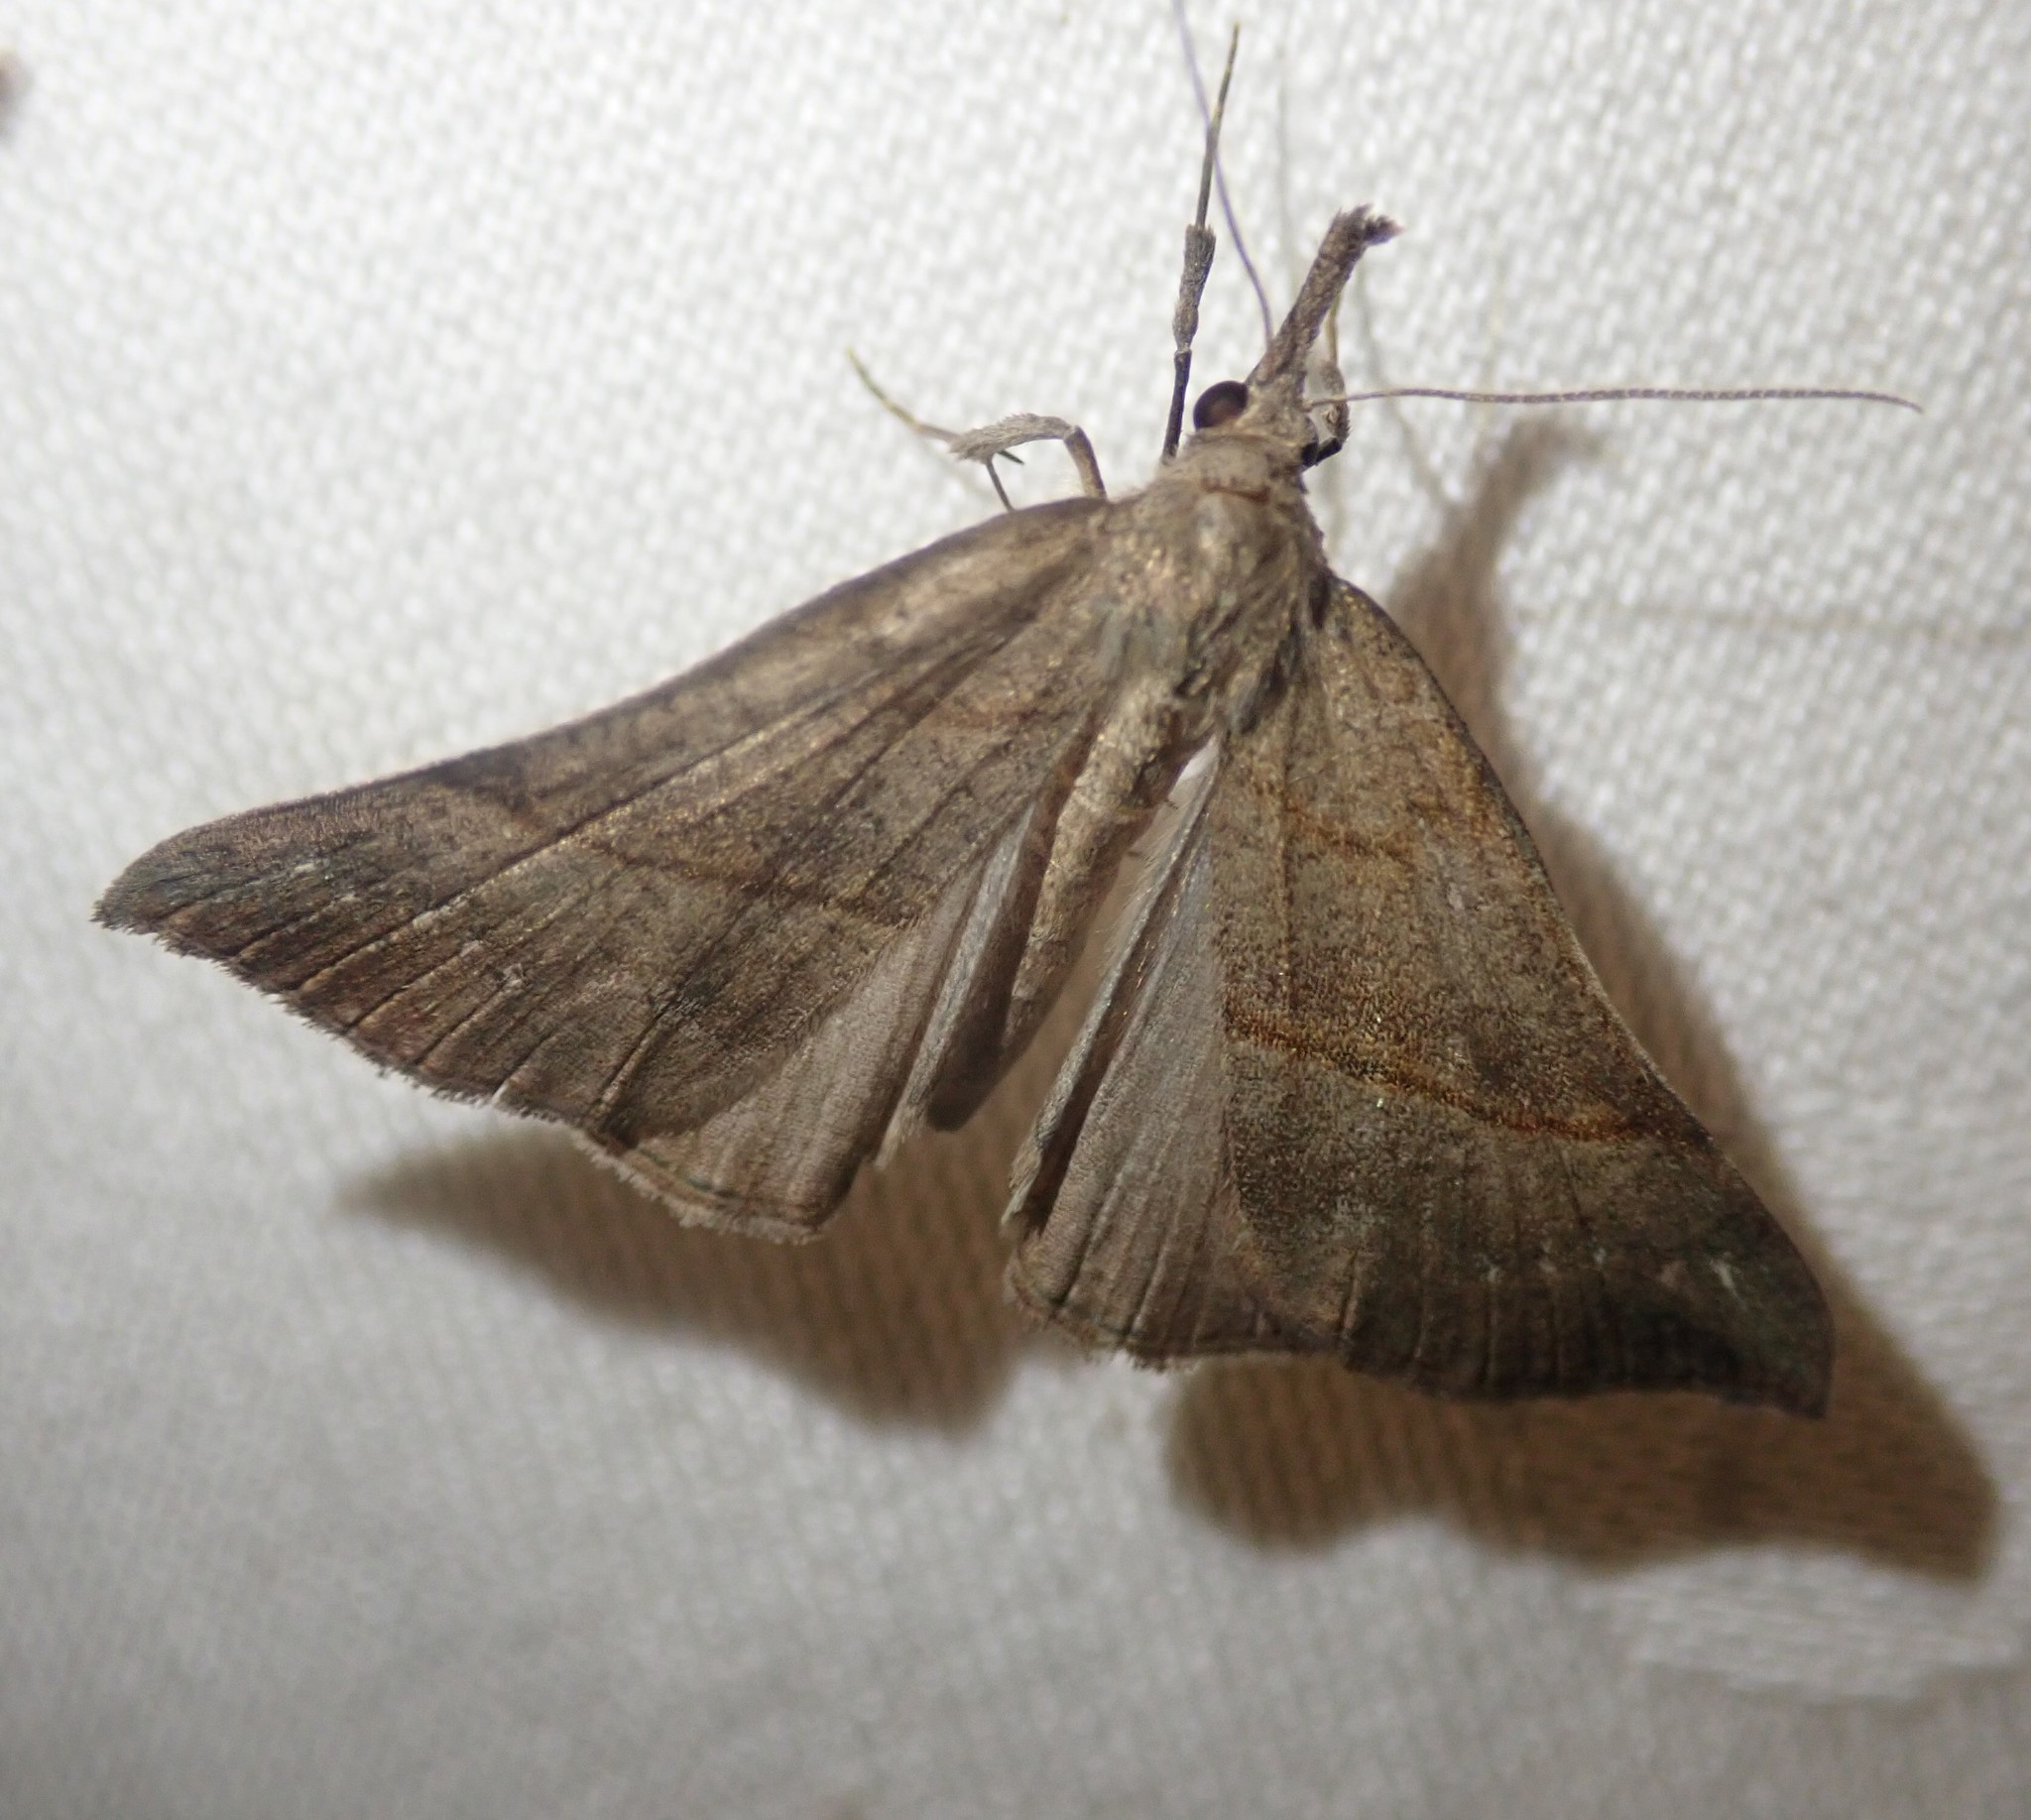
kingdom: Animalia
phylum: Arthropoda
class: Insecta
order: Lepidoptera
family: Erebidae
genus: Hypena
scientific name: Hypena proboscidalis
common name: Snout
